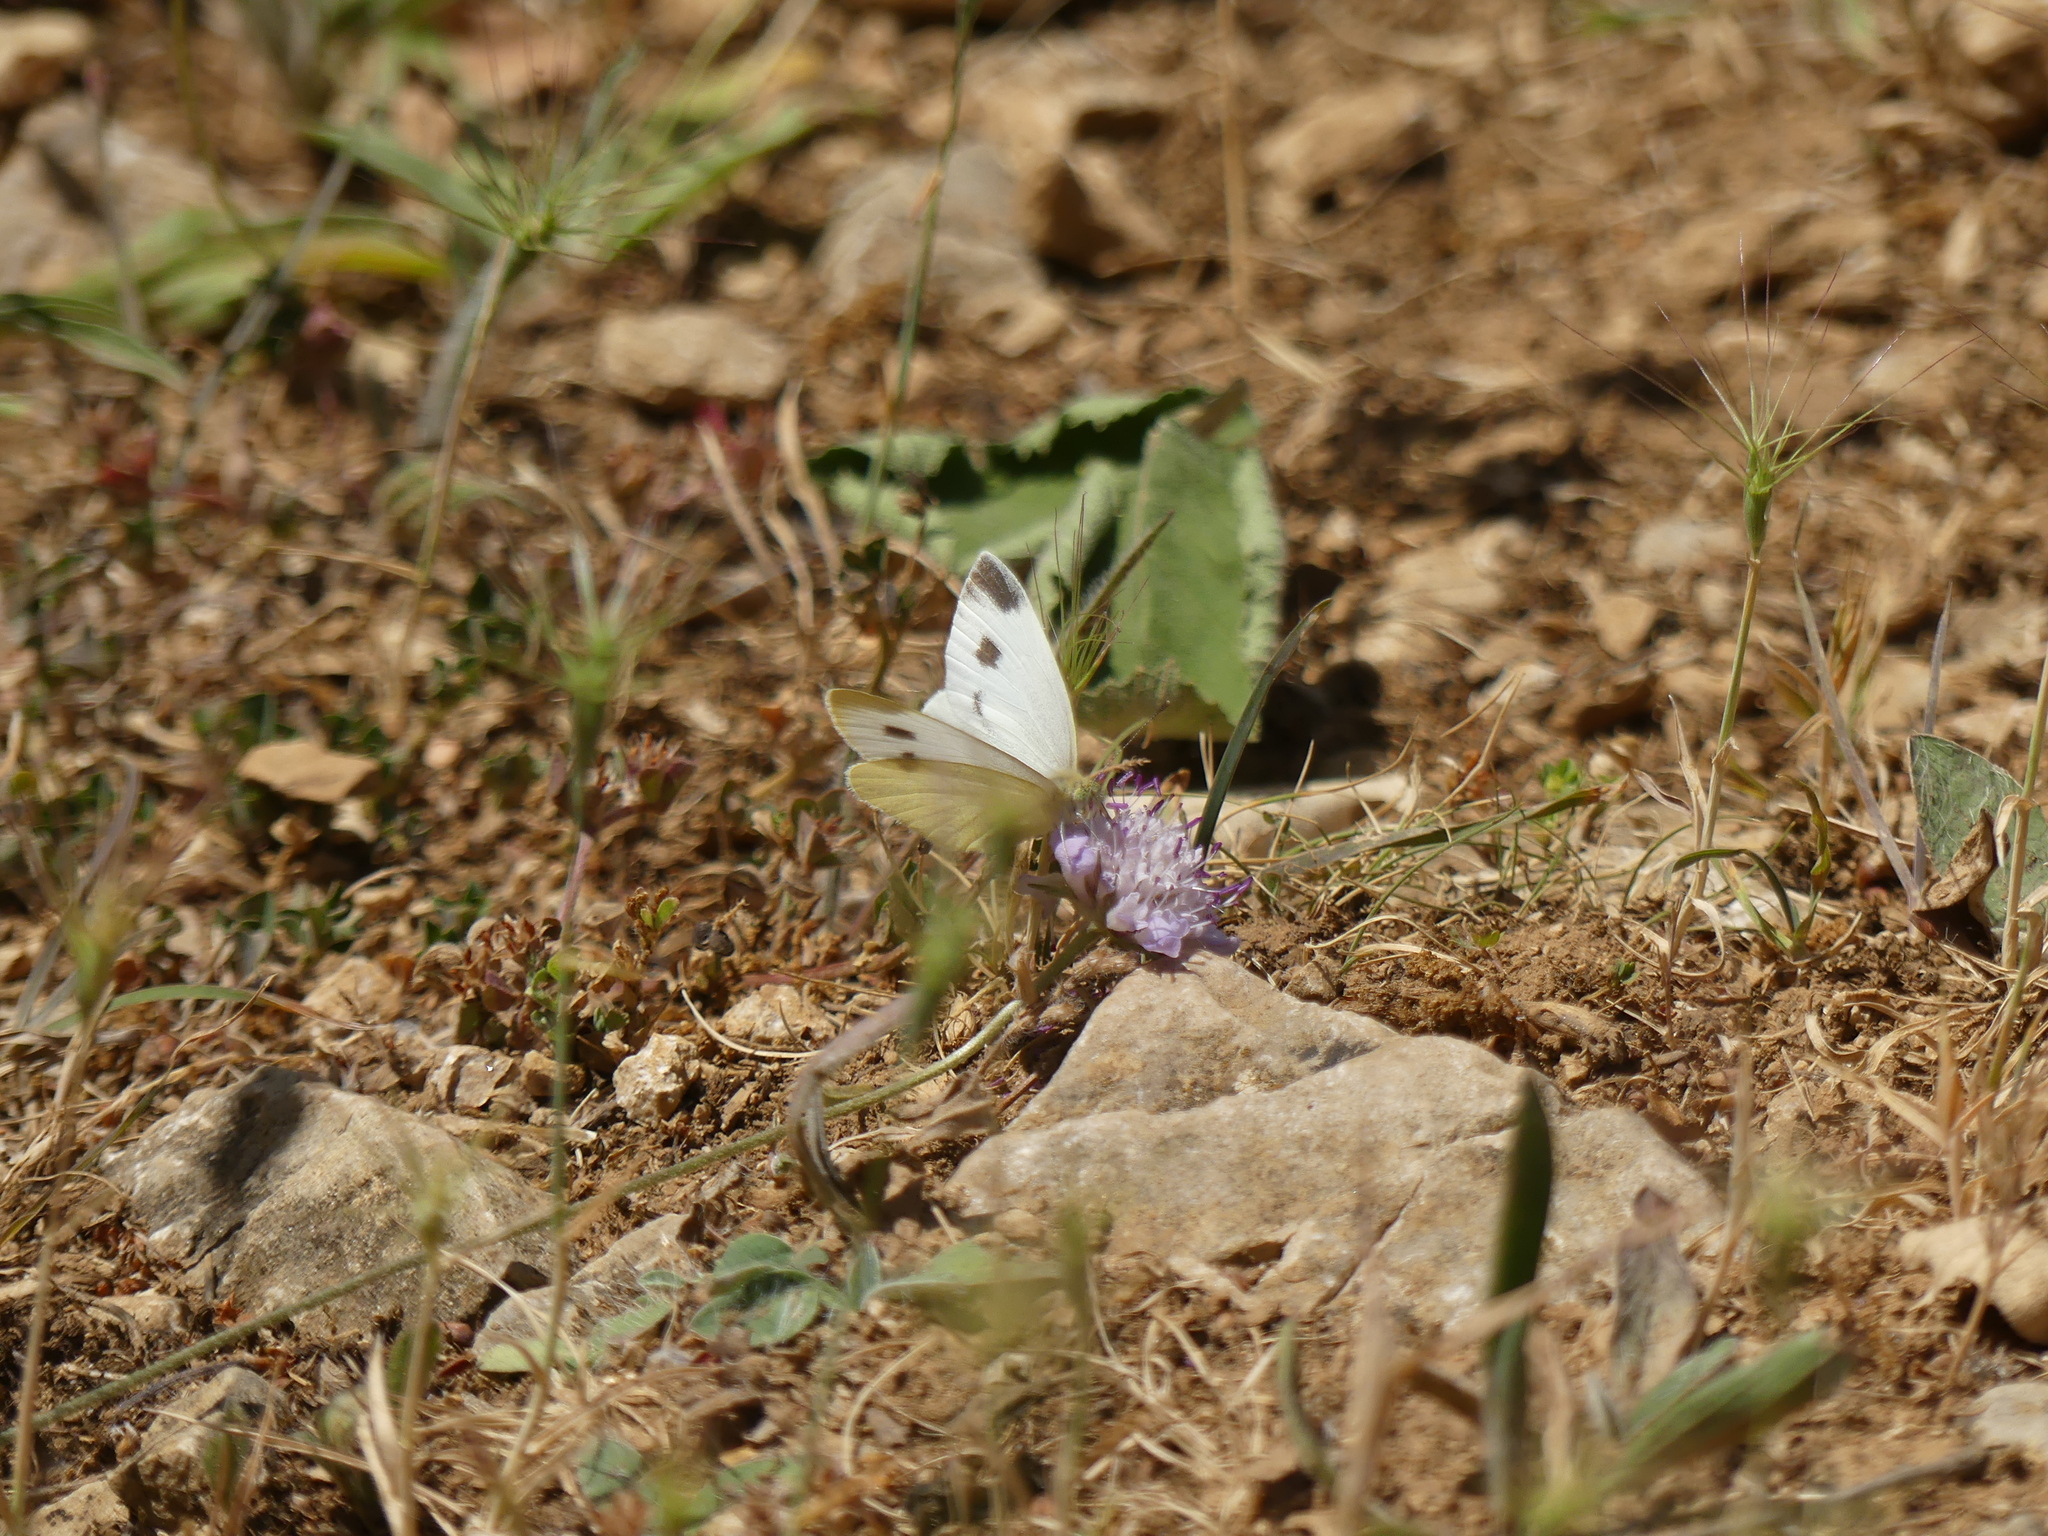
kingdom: Animalia
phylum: Arthropoda
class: Insecta
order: Lepidoptera
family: Pieridae
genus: Pieris
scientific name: Pieris mannii
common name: Southern small white
